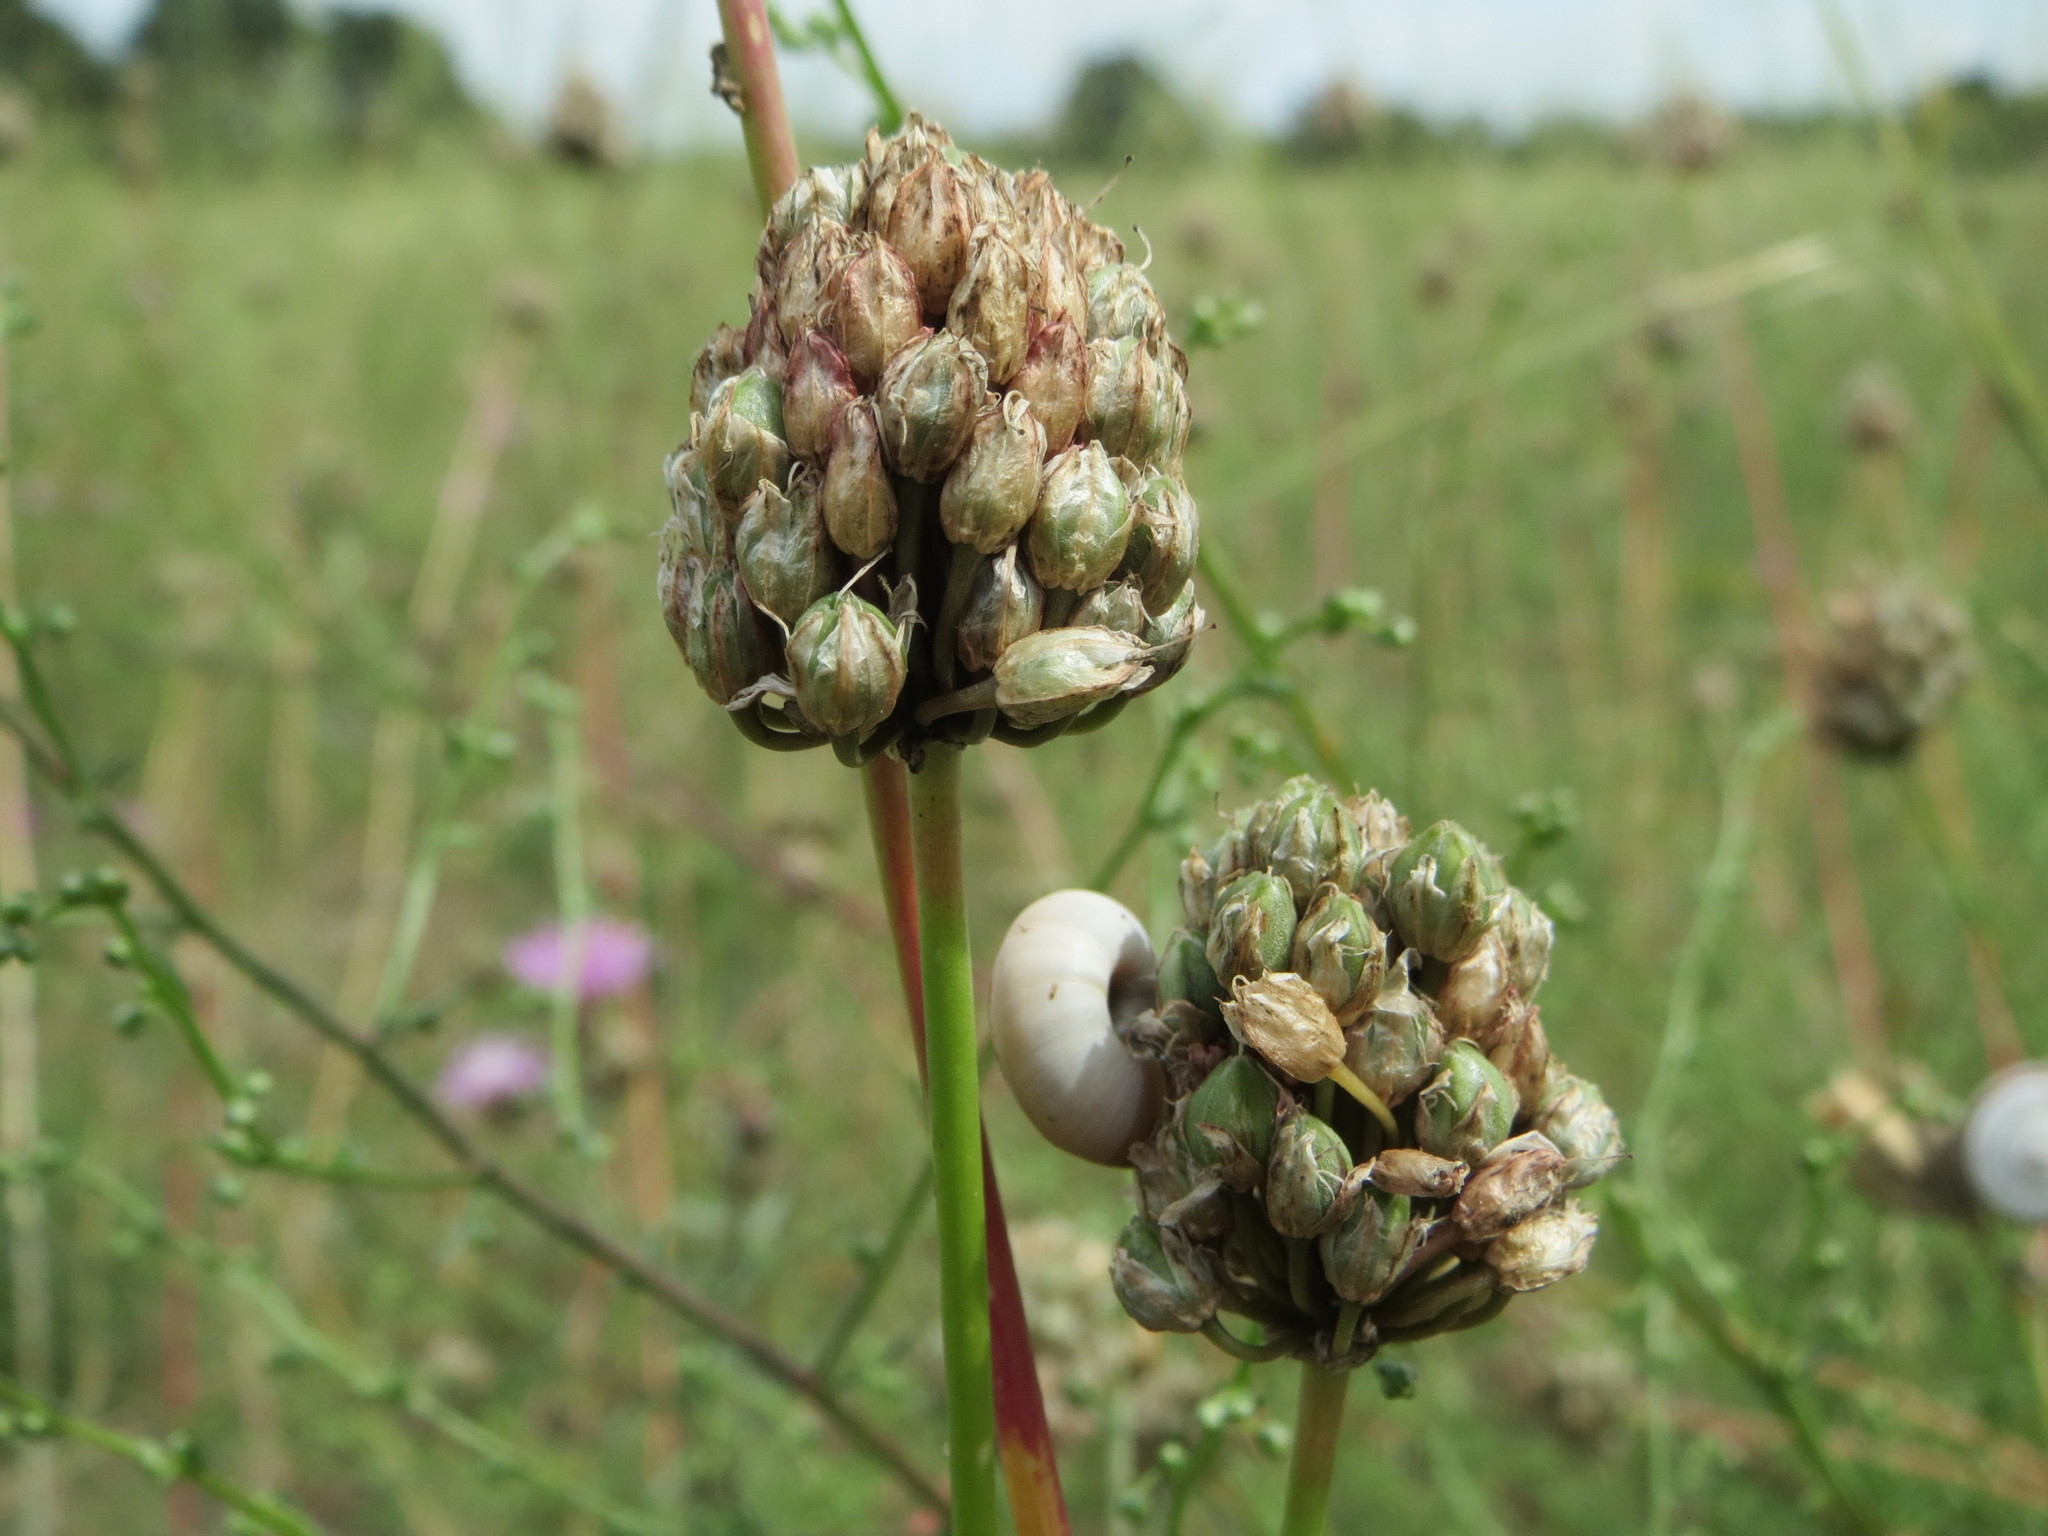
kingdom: Plantae
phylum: Tracheophyta
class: Liliopsida
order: Asparagales
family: Amaryllidaceae
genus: Allium
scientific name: Allium sphaerocephalon
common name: Round-headed leek
